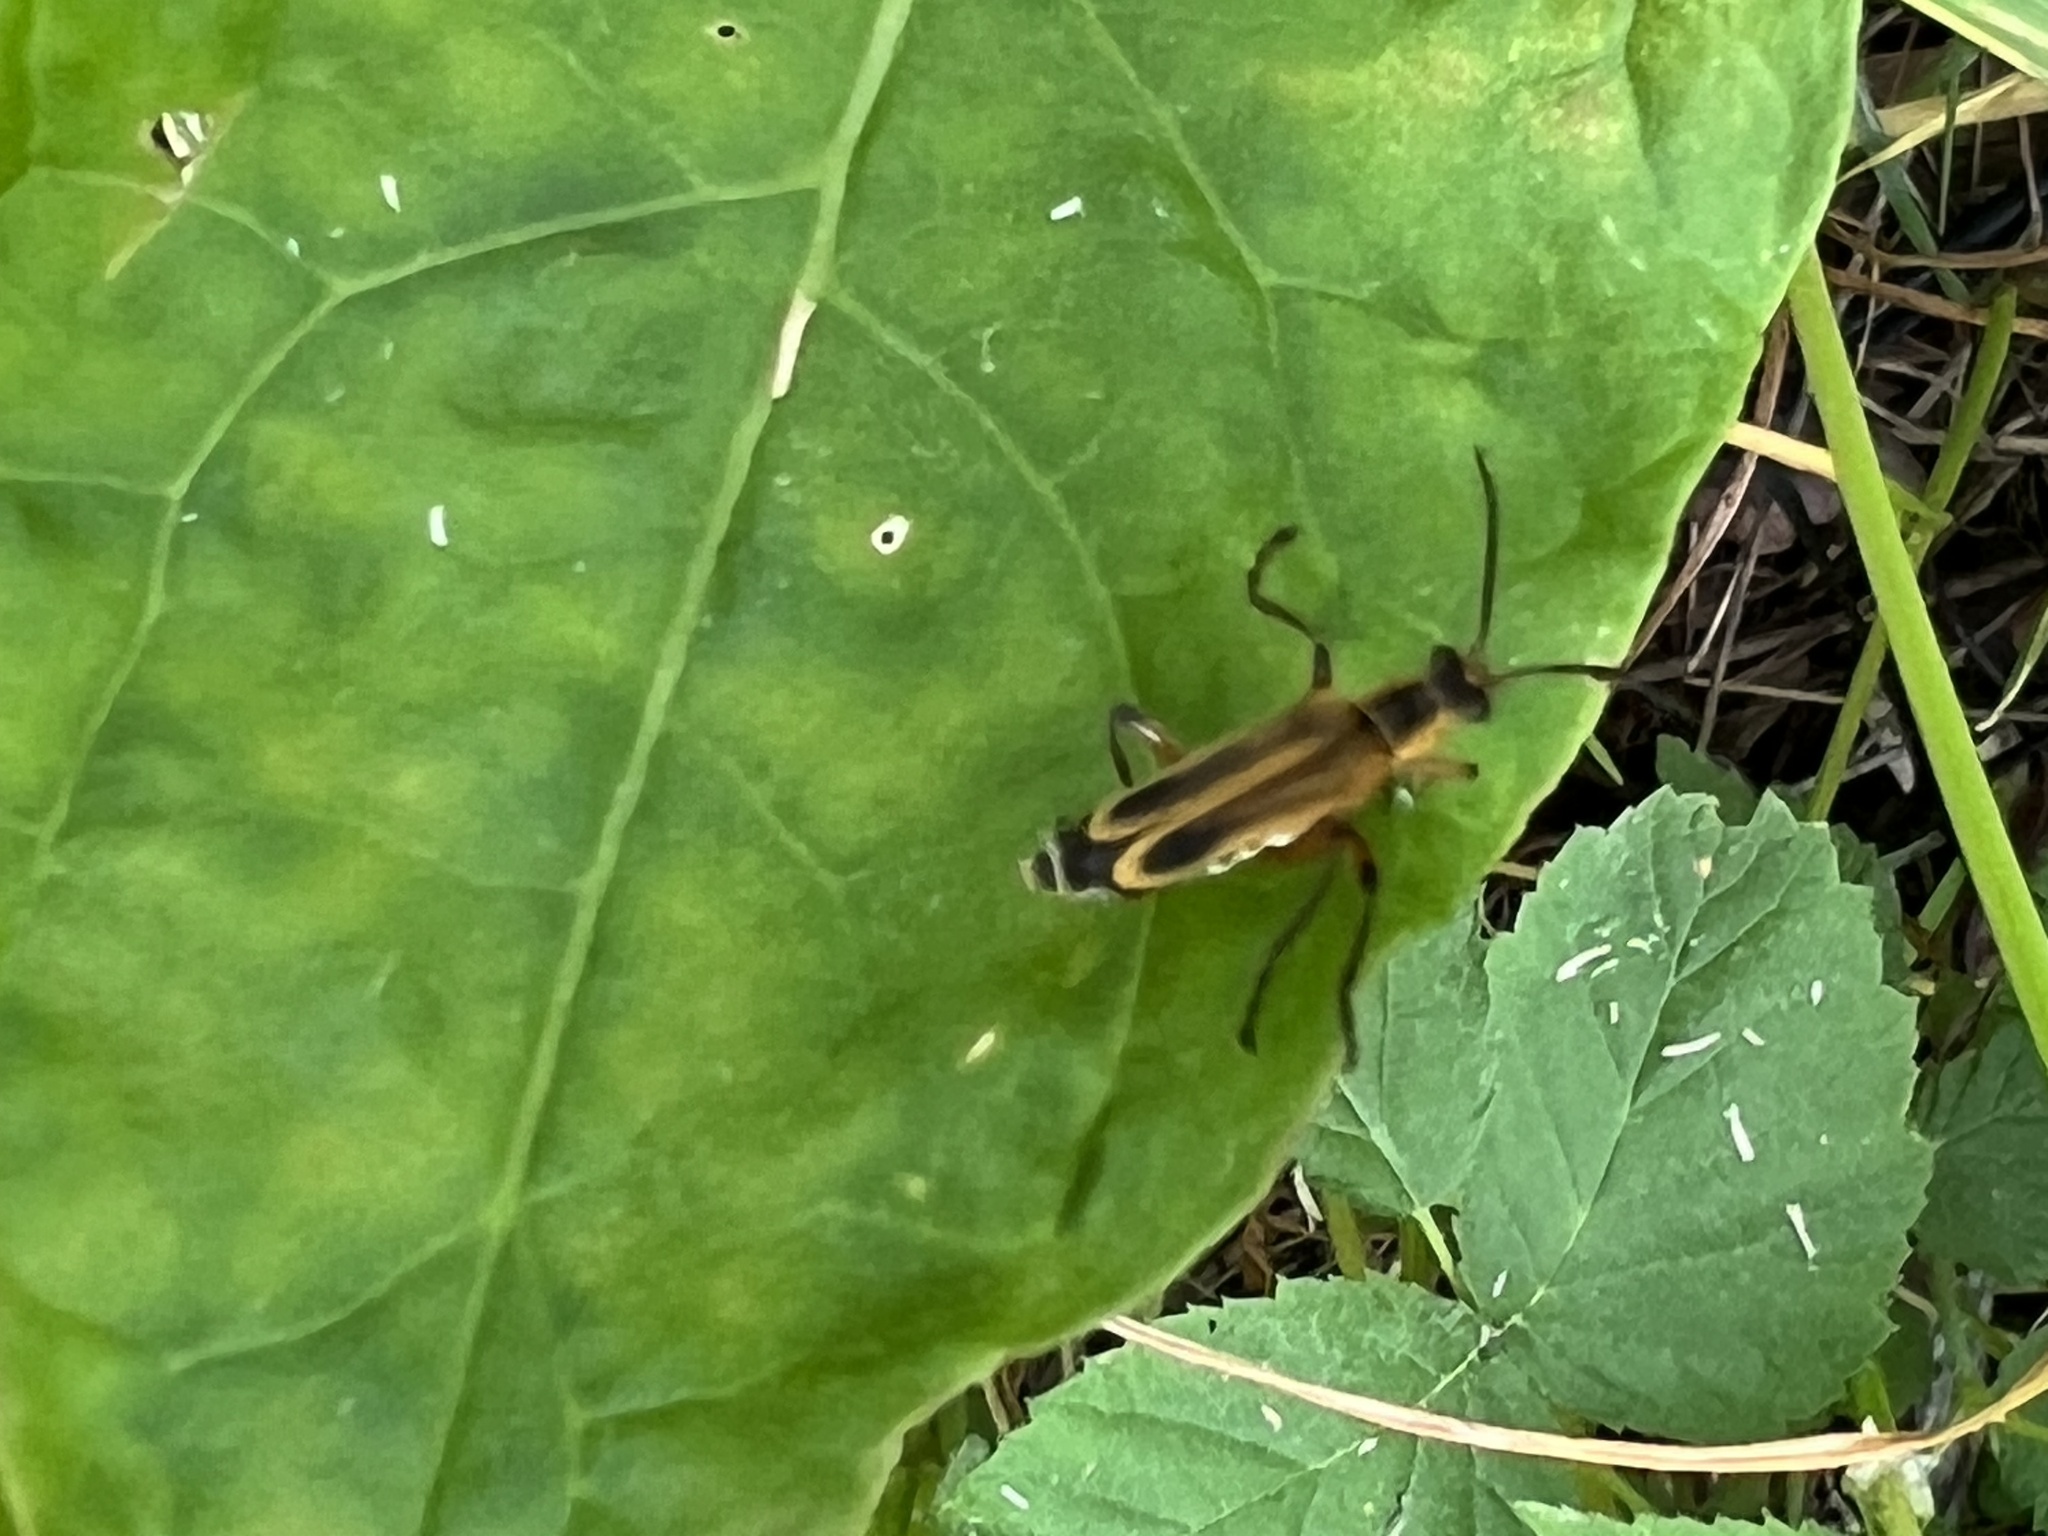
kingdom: Animalia
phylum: Arthropoda
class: Insecta
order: Coleoptera
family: Cantharidae
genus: Chauliognathus
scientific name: Chauliognathus marginatus
